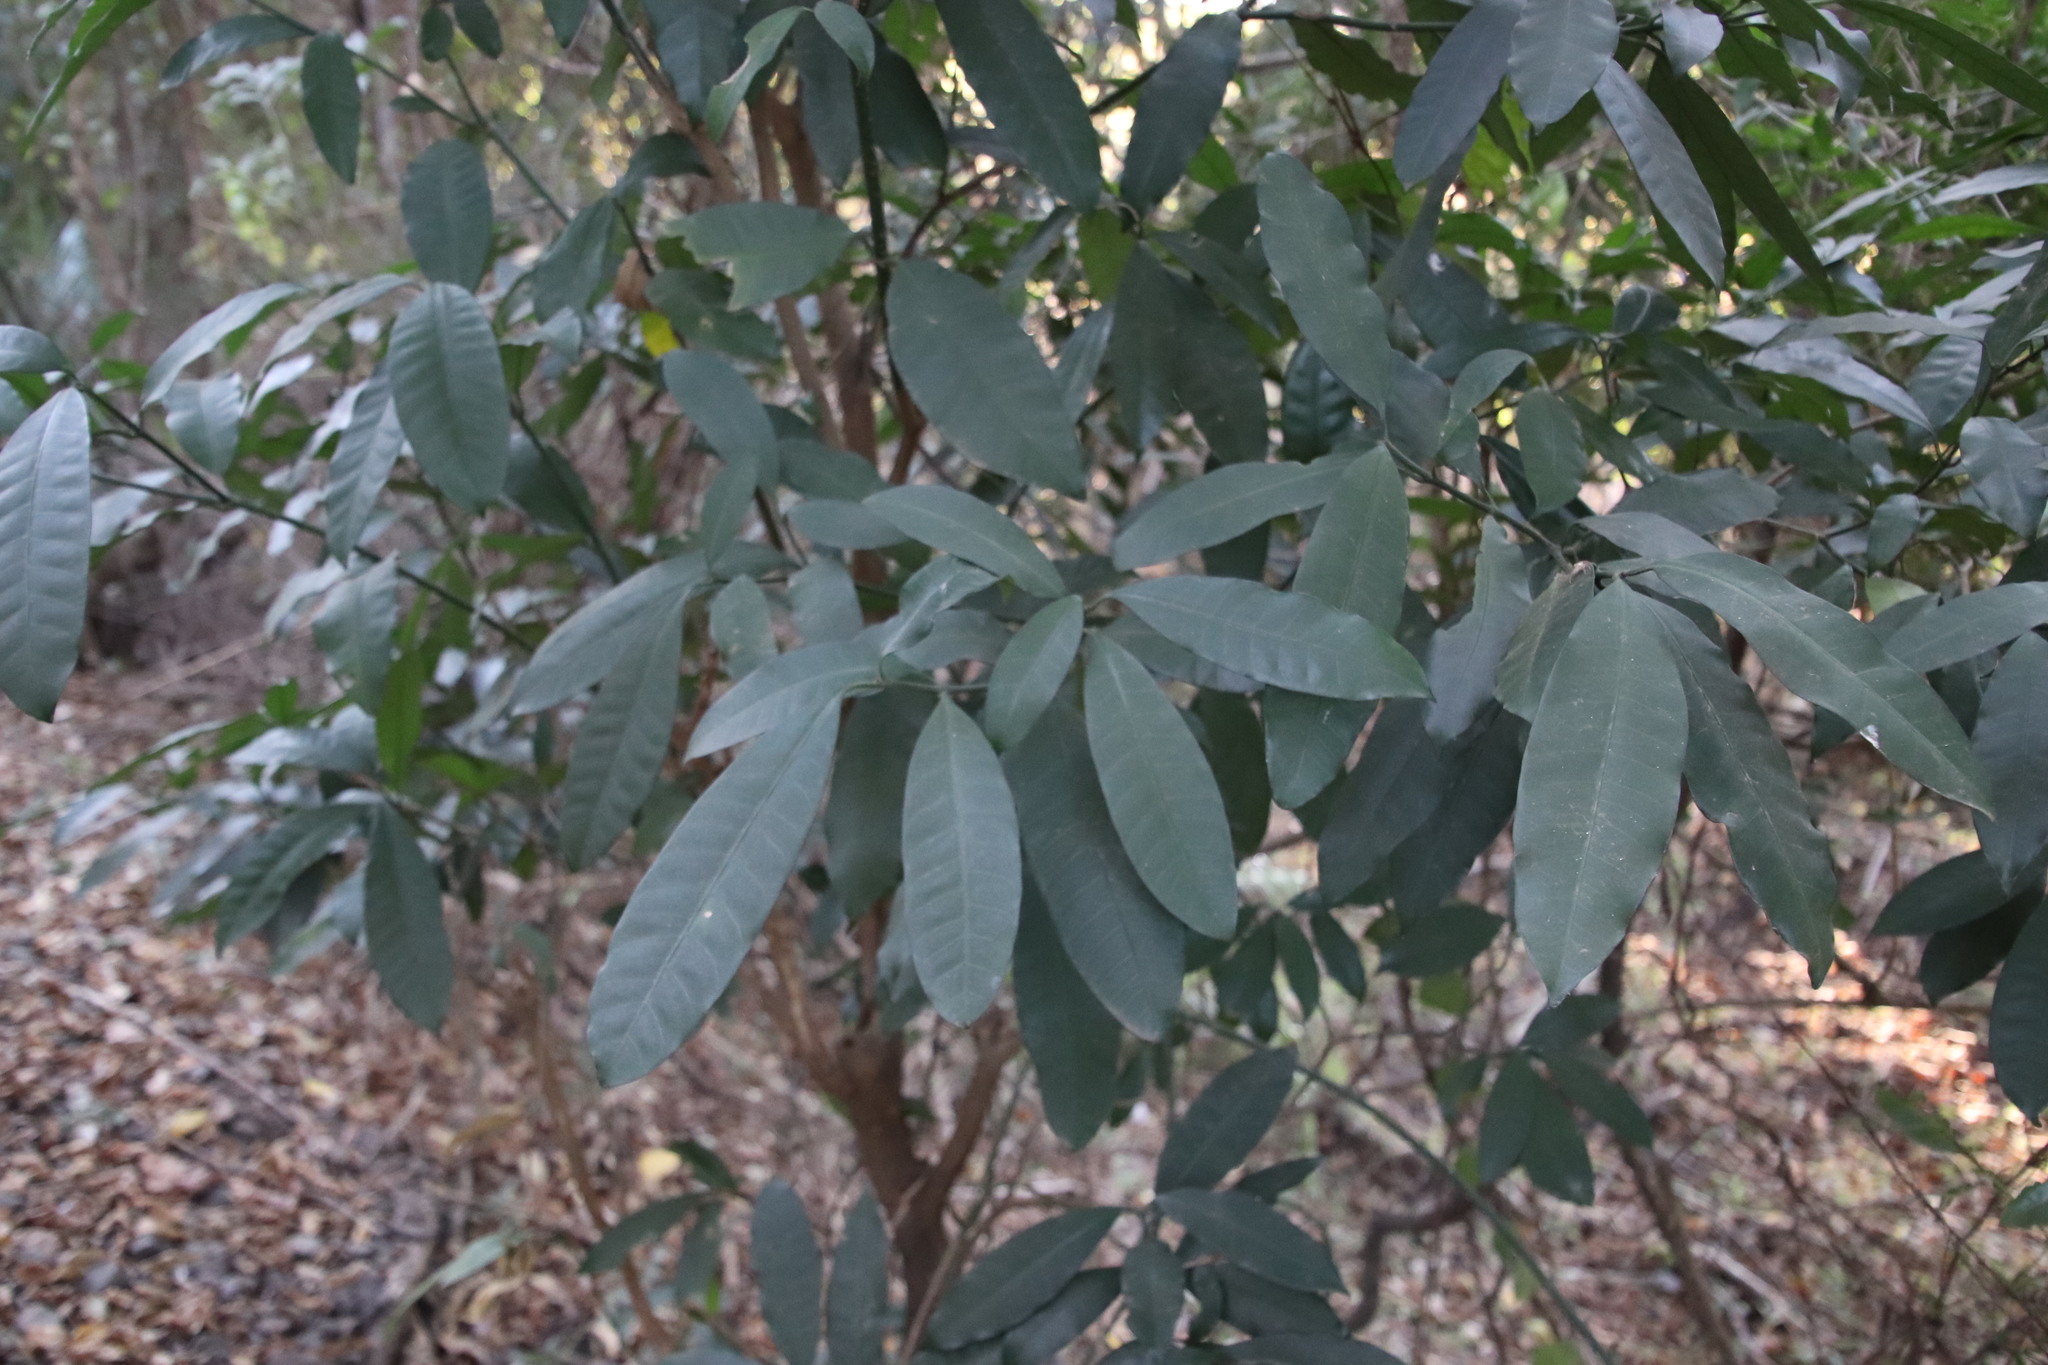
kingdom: Plantae
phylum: Tracheophyta
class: Magnoliopsida
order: Gentianales
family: Apocynaceae
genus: Tabernaemontana
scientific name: Tabernaemontana ventricosa
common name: Forest toad-tree
